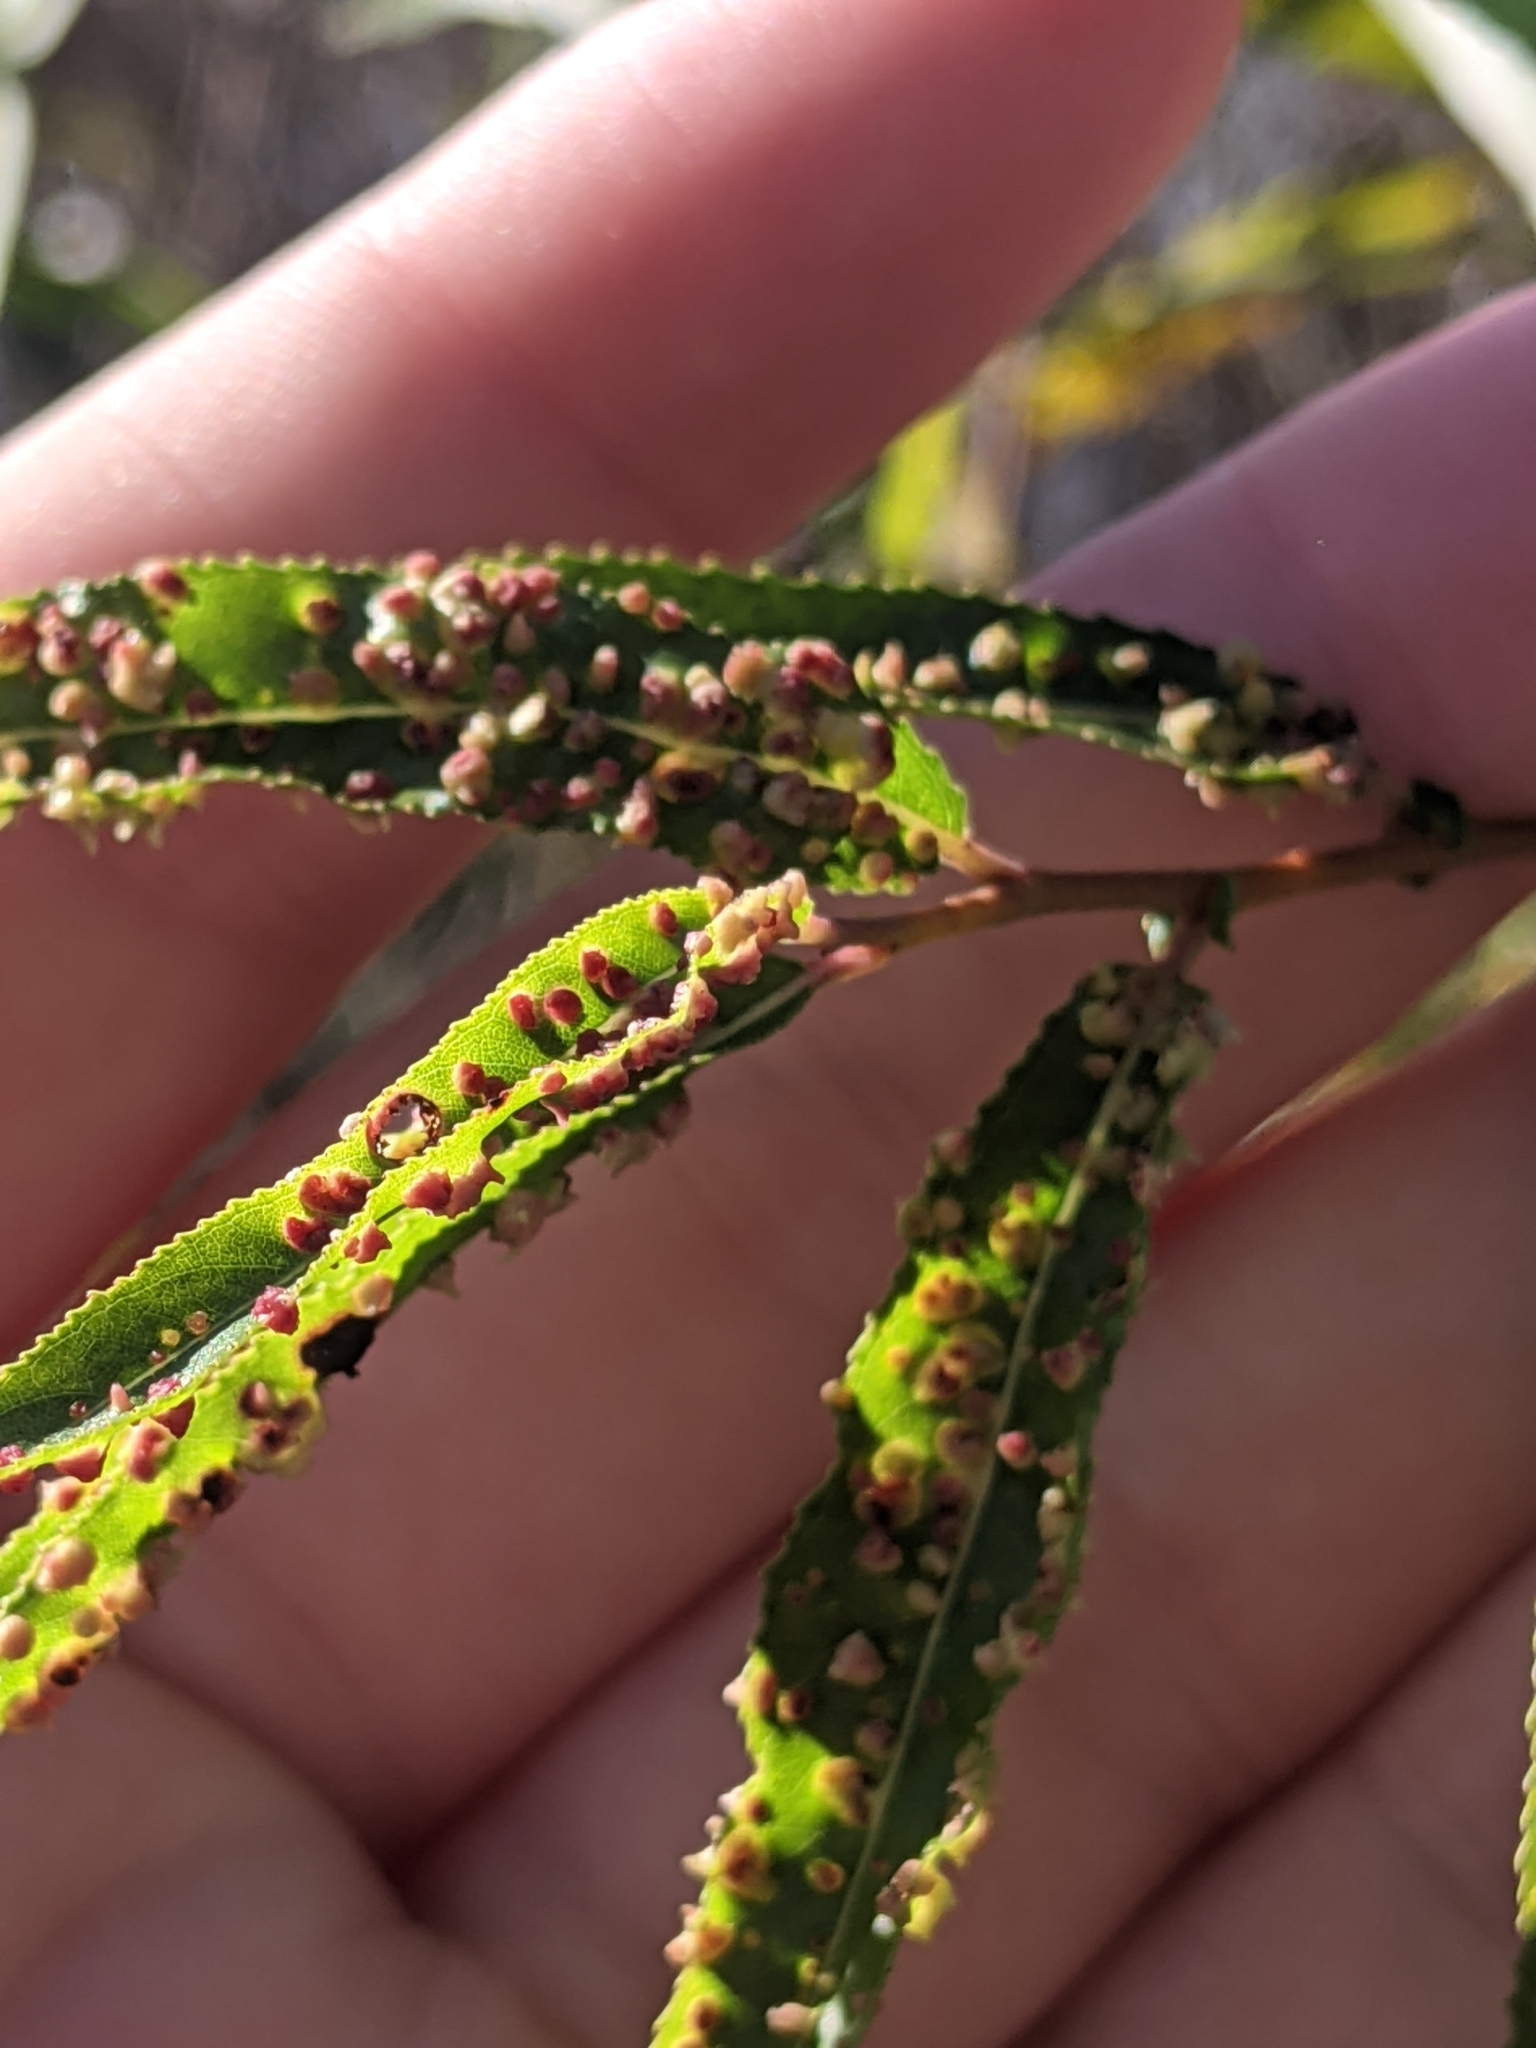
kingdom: Animalia
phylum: Arthropoda
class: Arachnida
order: Trombidiformes
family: Eriophyidae
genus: Aculus
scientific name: Aculus tetanothrix
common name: Willow bead gall mite
